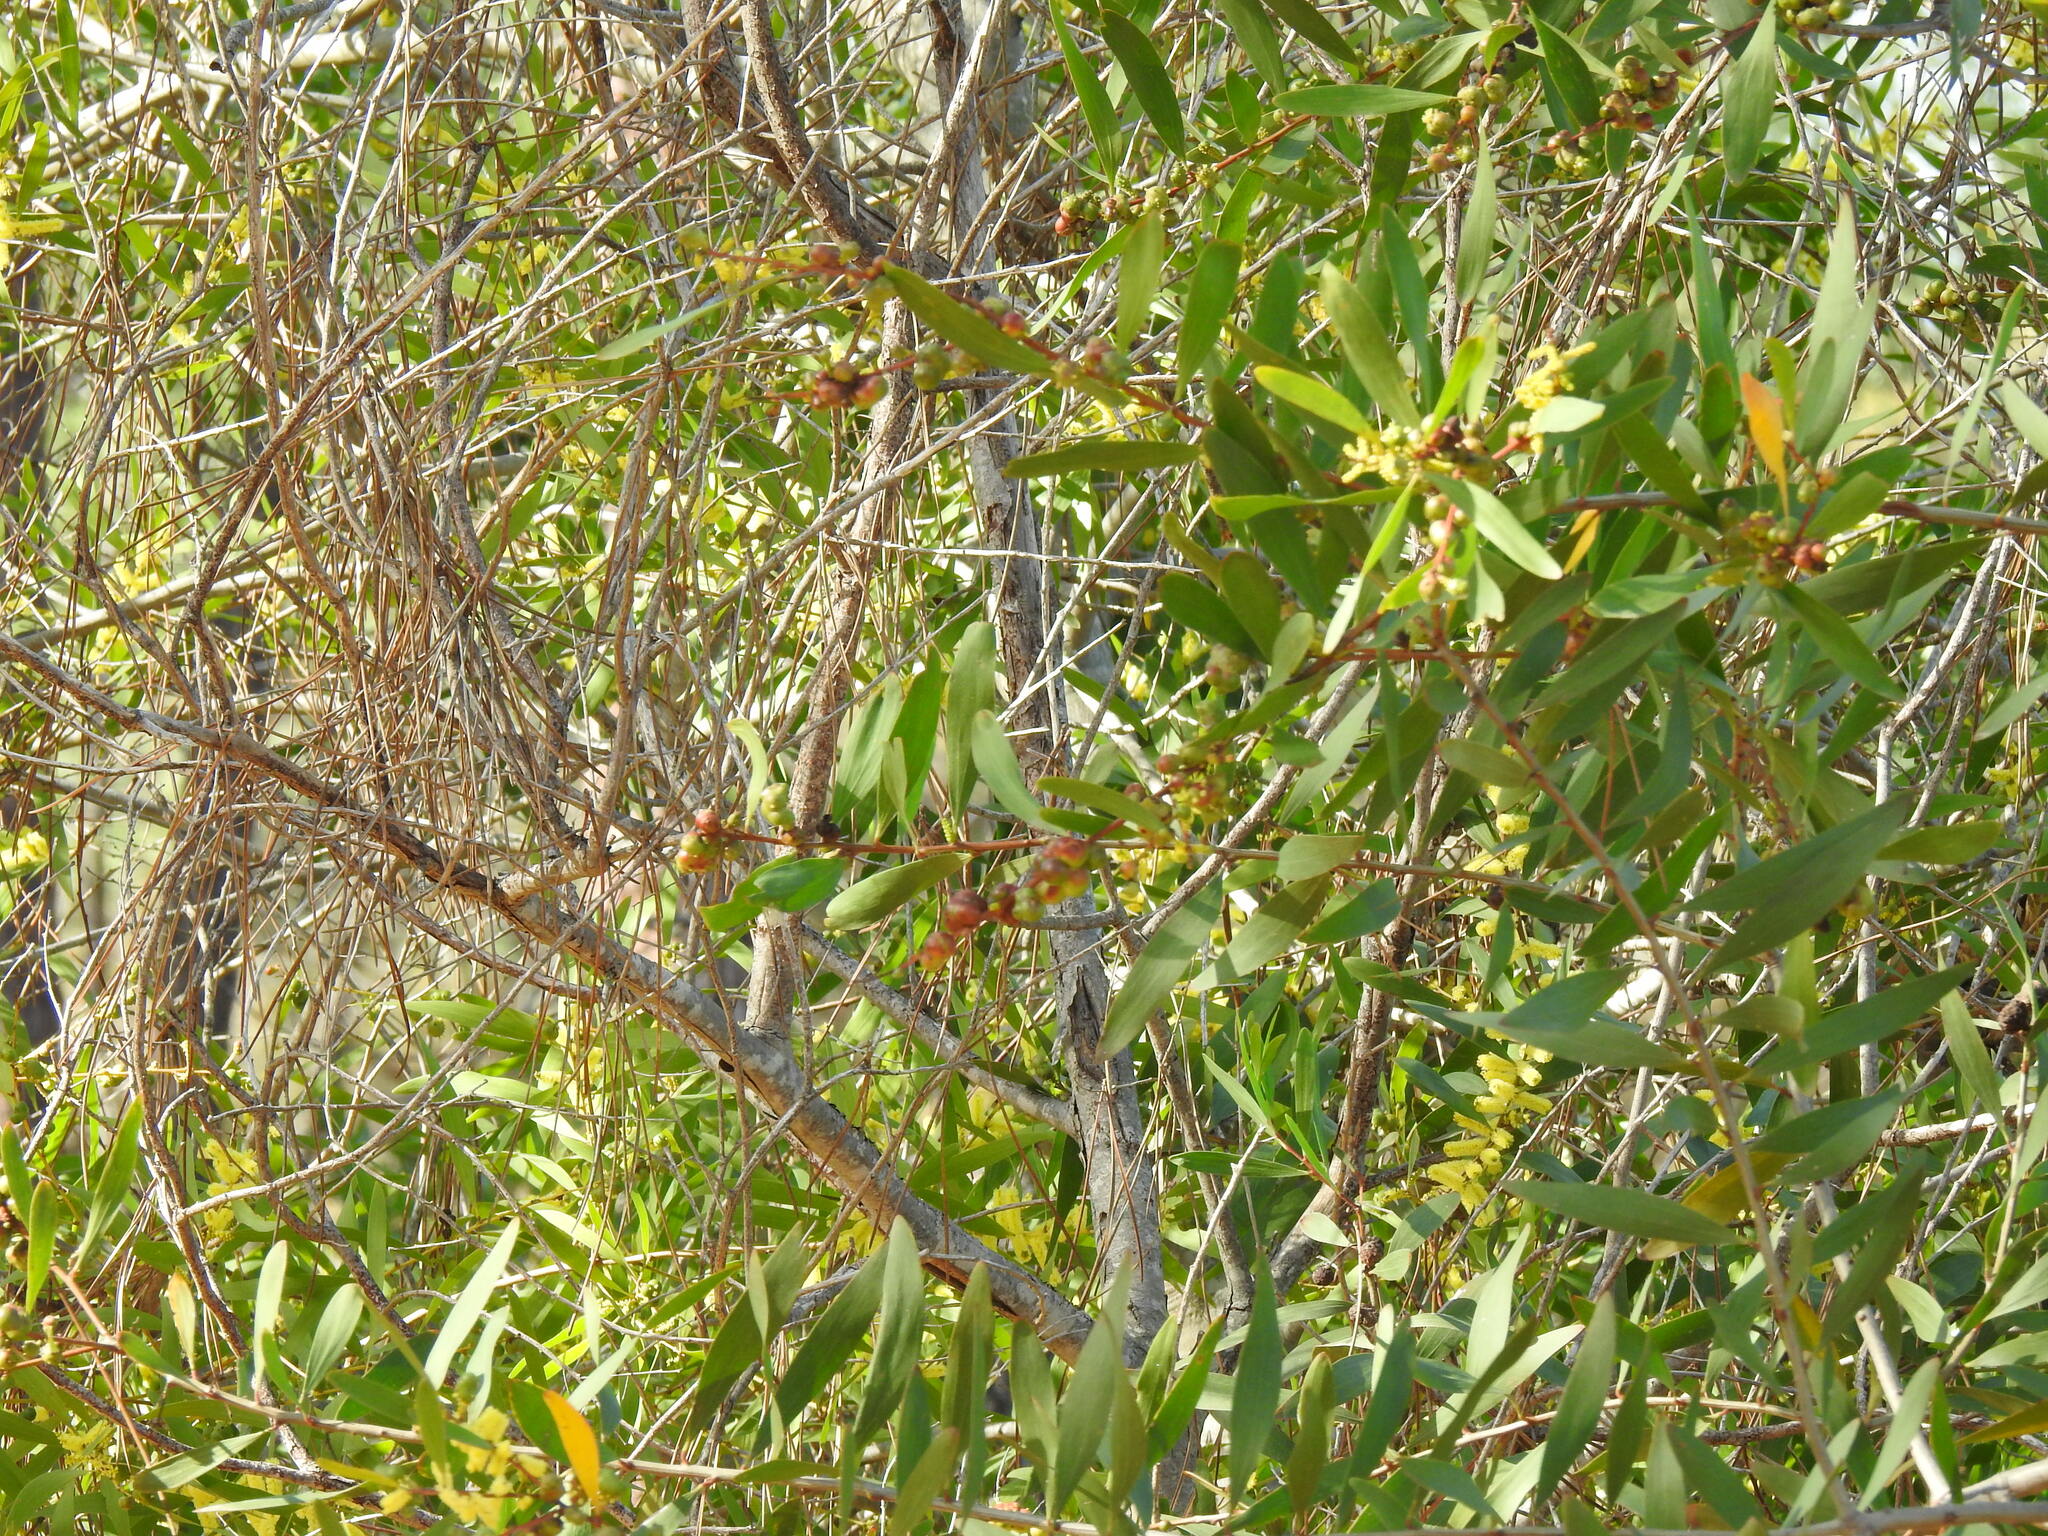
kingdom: Plantae
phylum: Tracheophyta
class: Magnoliopsida
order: Fabales
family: Fabaceae
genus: Acacia
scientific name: Acacia longifolia
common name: Sydney golden wattle
